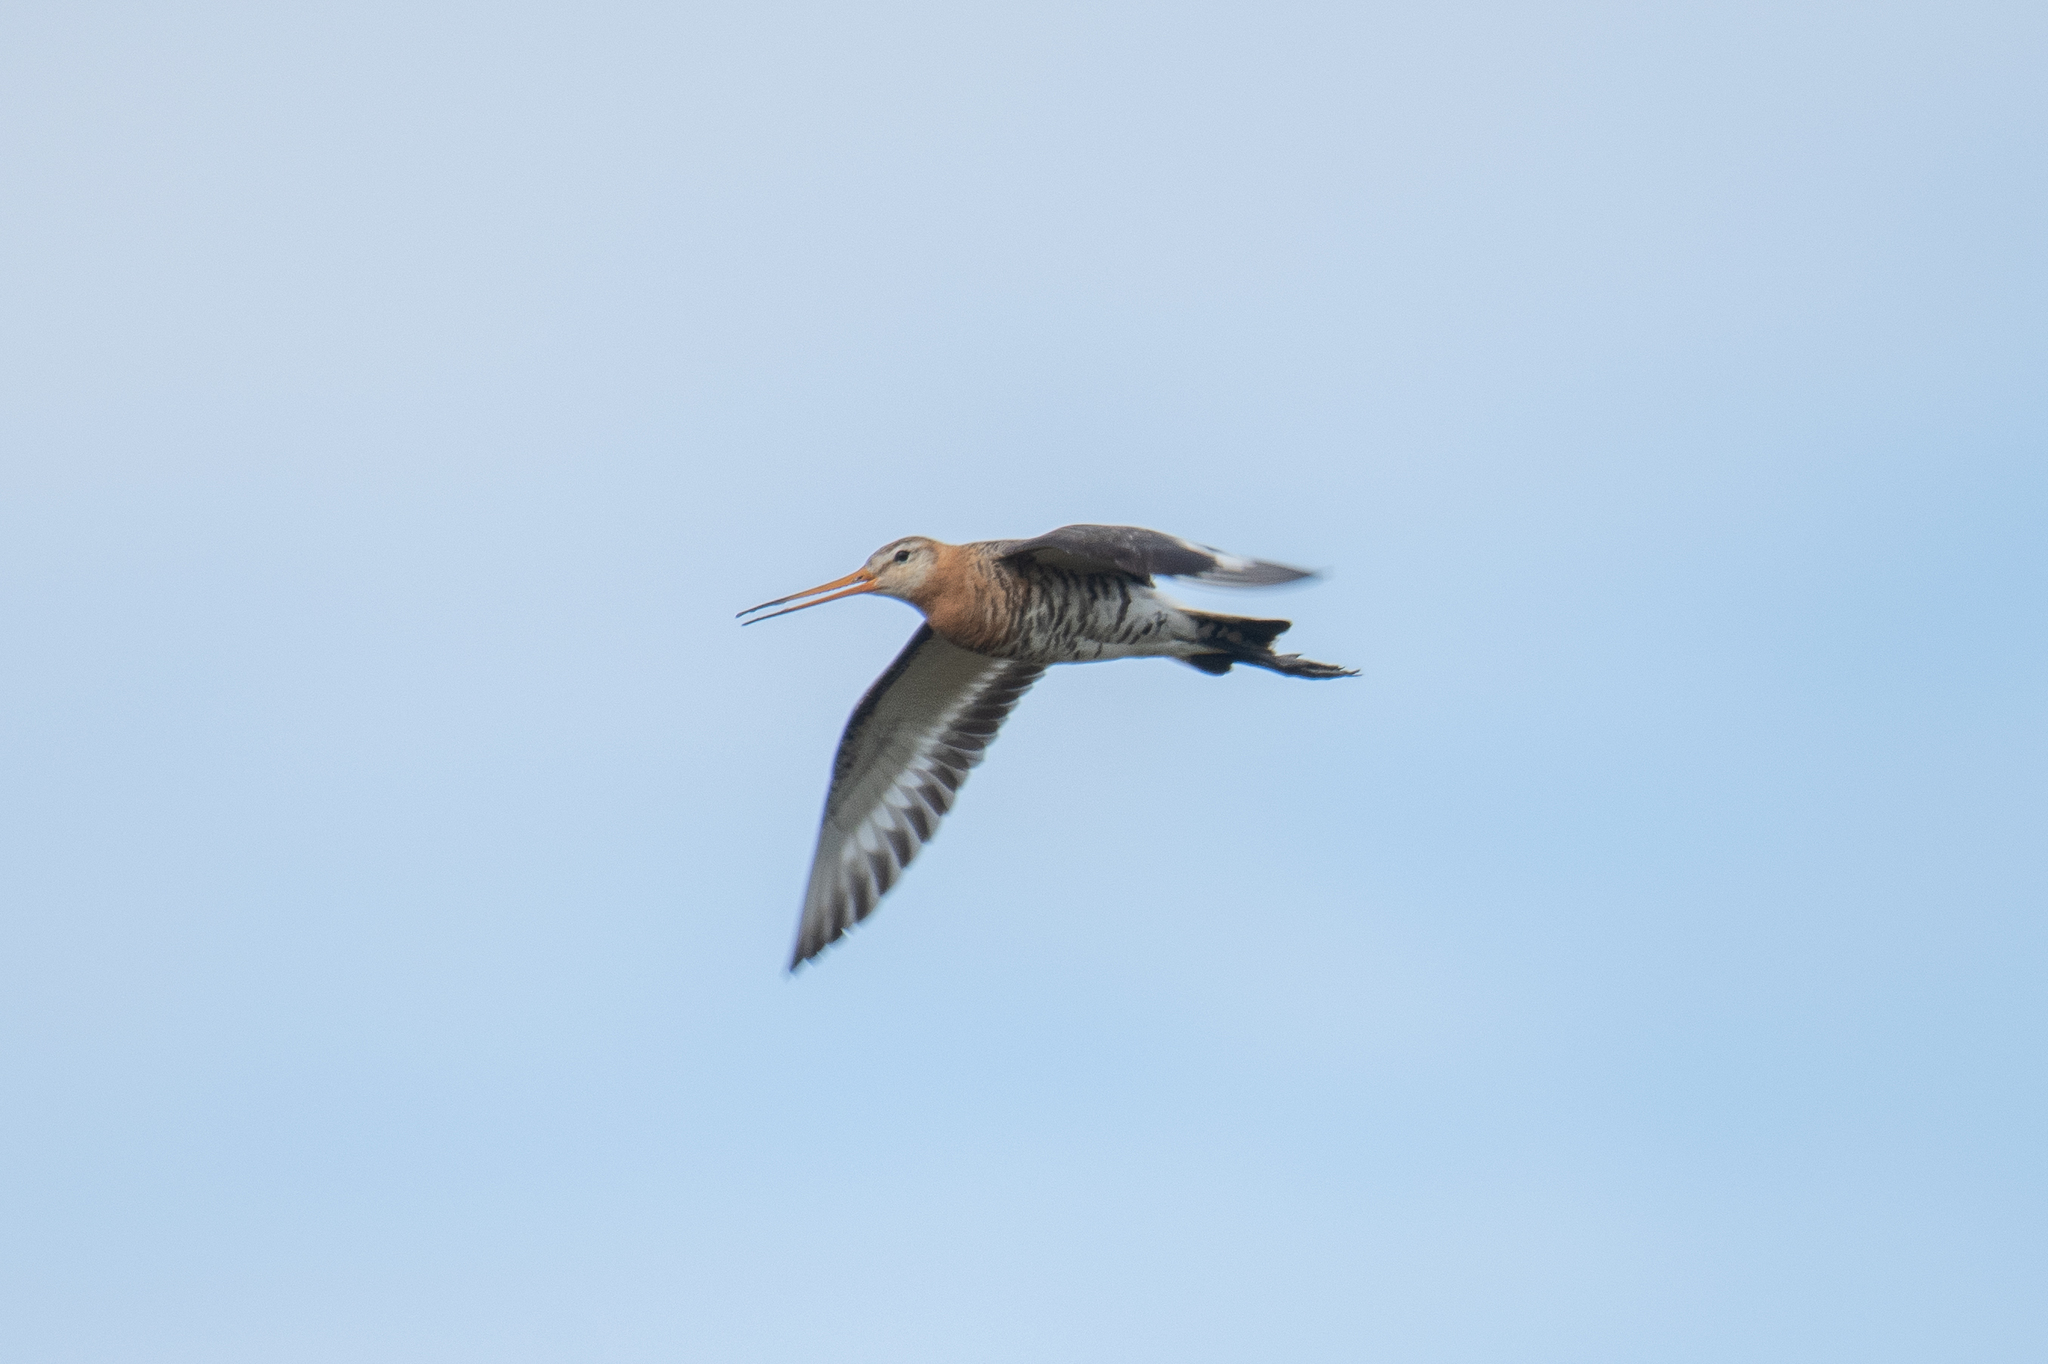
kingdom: Animalia
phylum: Chordata
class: Aves
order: Charadriiformes
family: Scolopacidae
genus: Limosa
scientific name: Limosa limosa
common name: Black-tailed godwit
